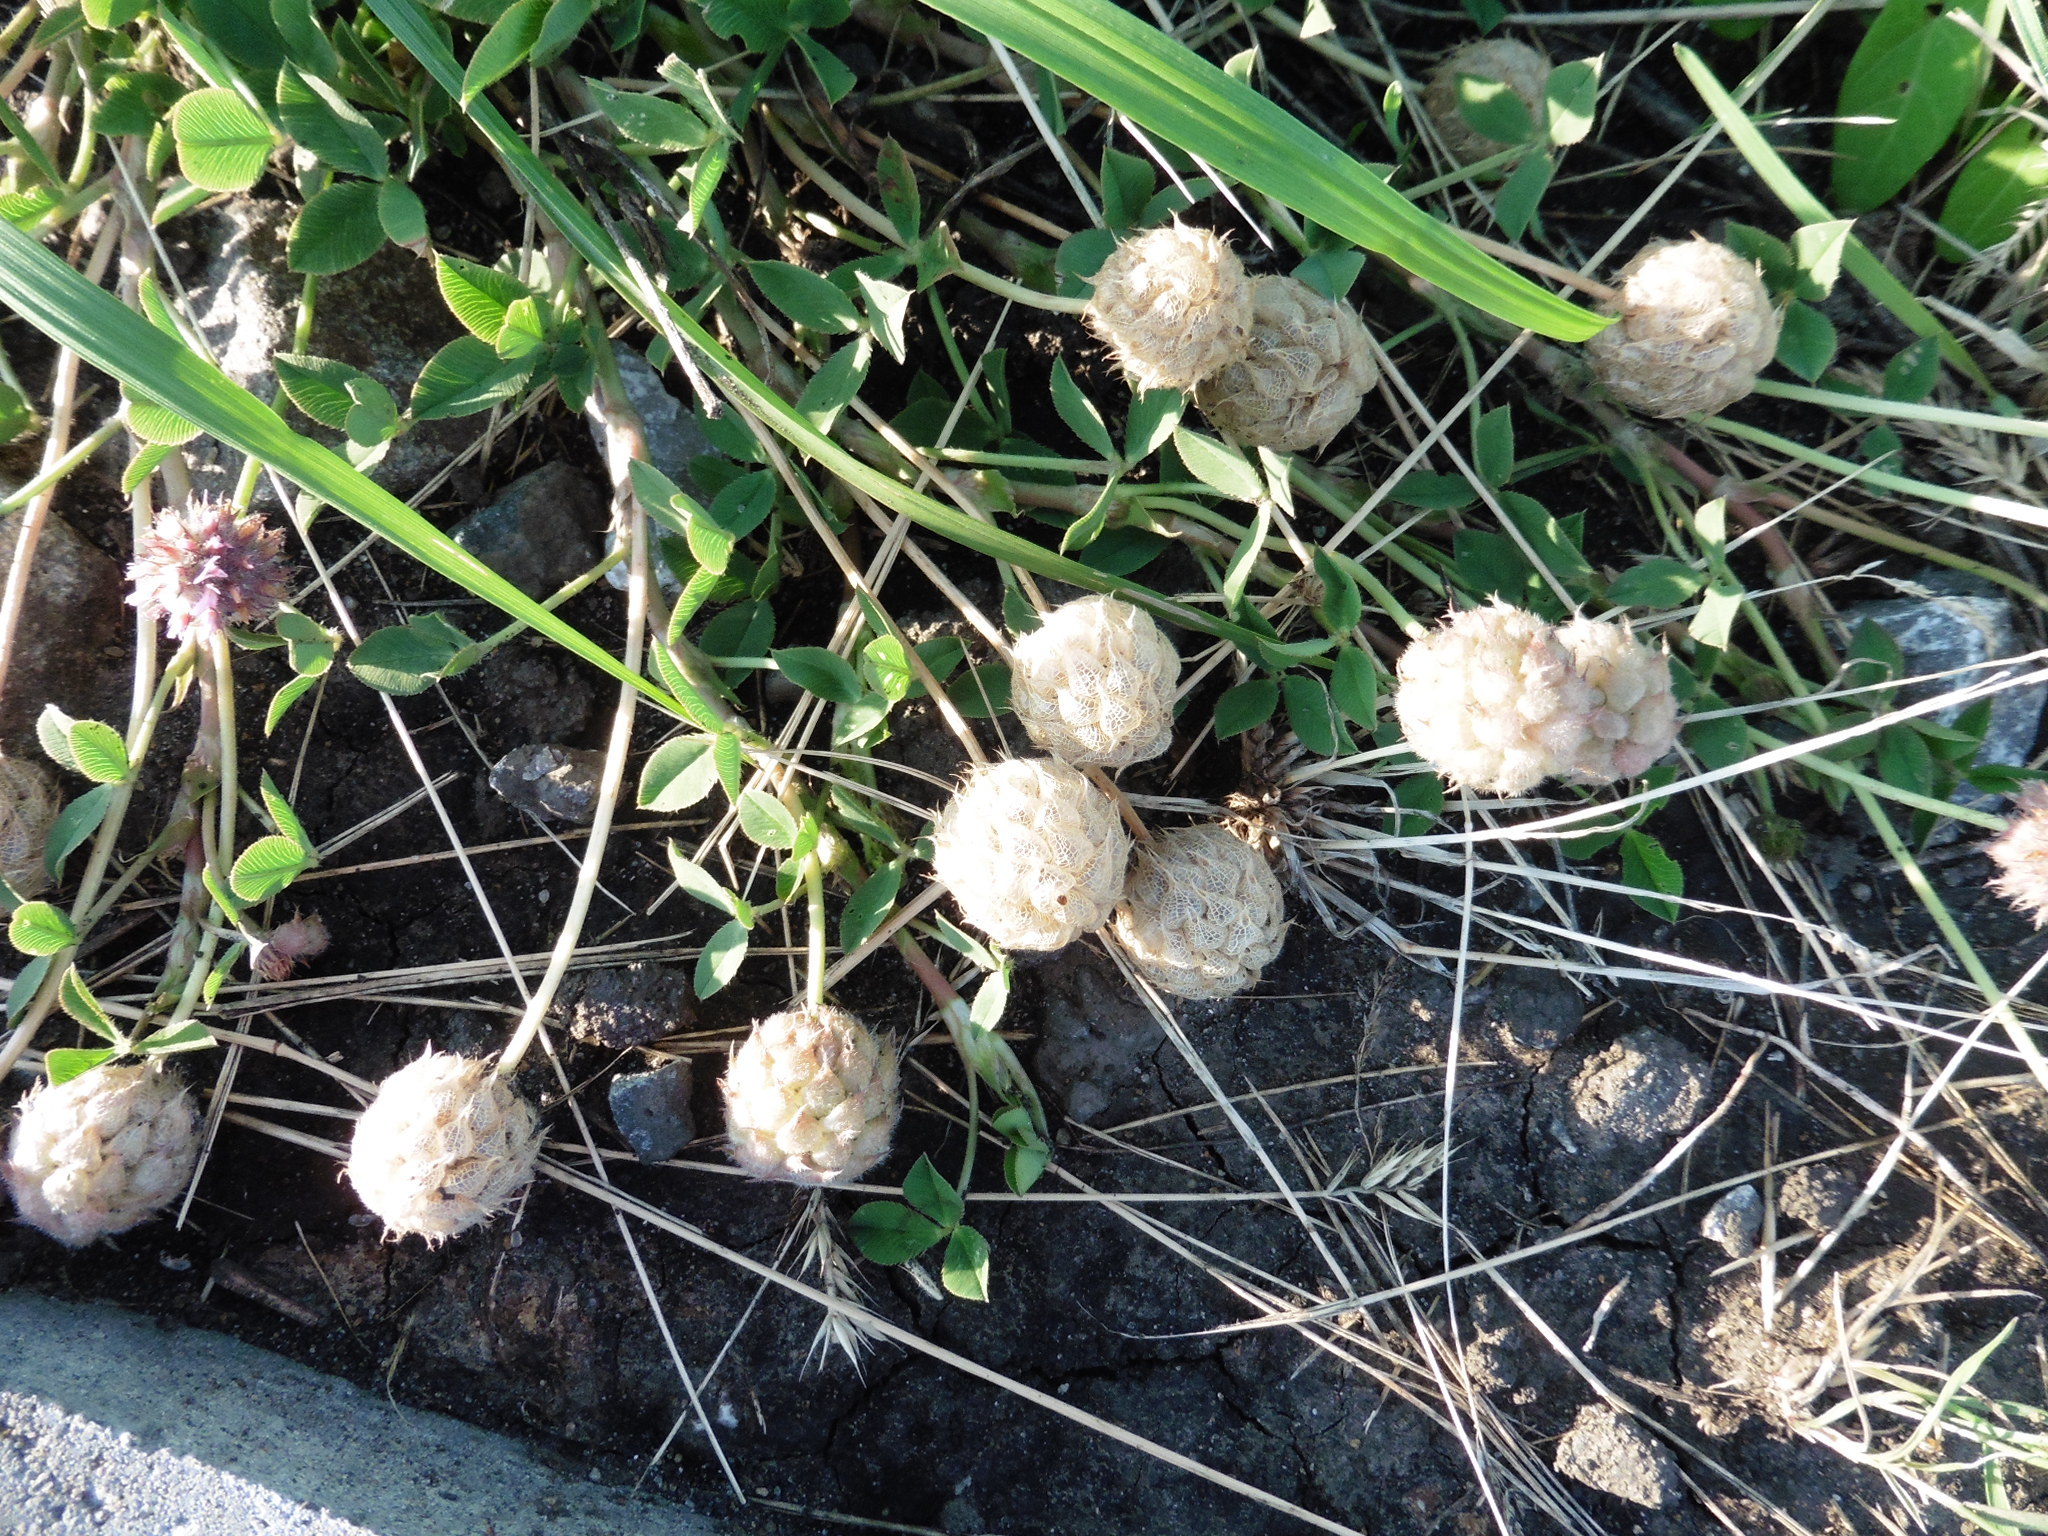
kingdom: Plantae
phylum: Tracheophyta
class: Magnoliopsida
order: Fabales
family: Fabaceae
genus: Trifolium
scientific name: Trifolium fragiferum
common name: Strawberry clover
